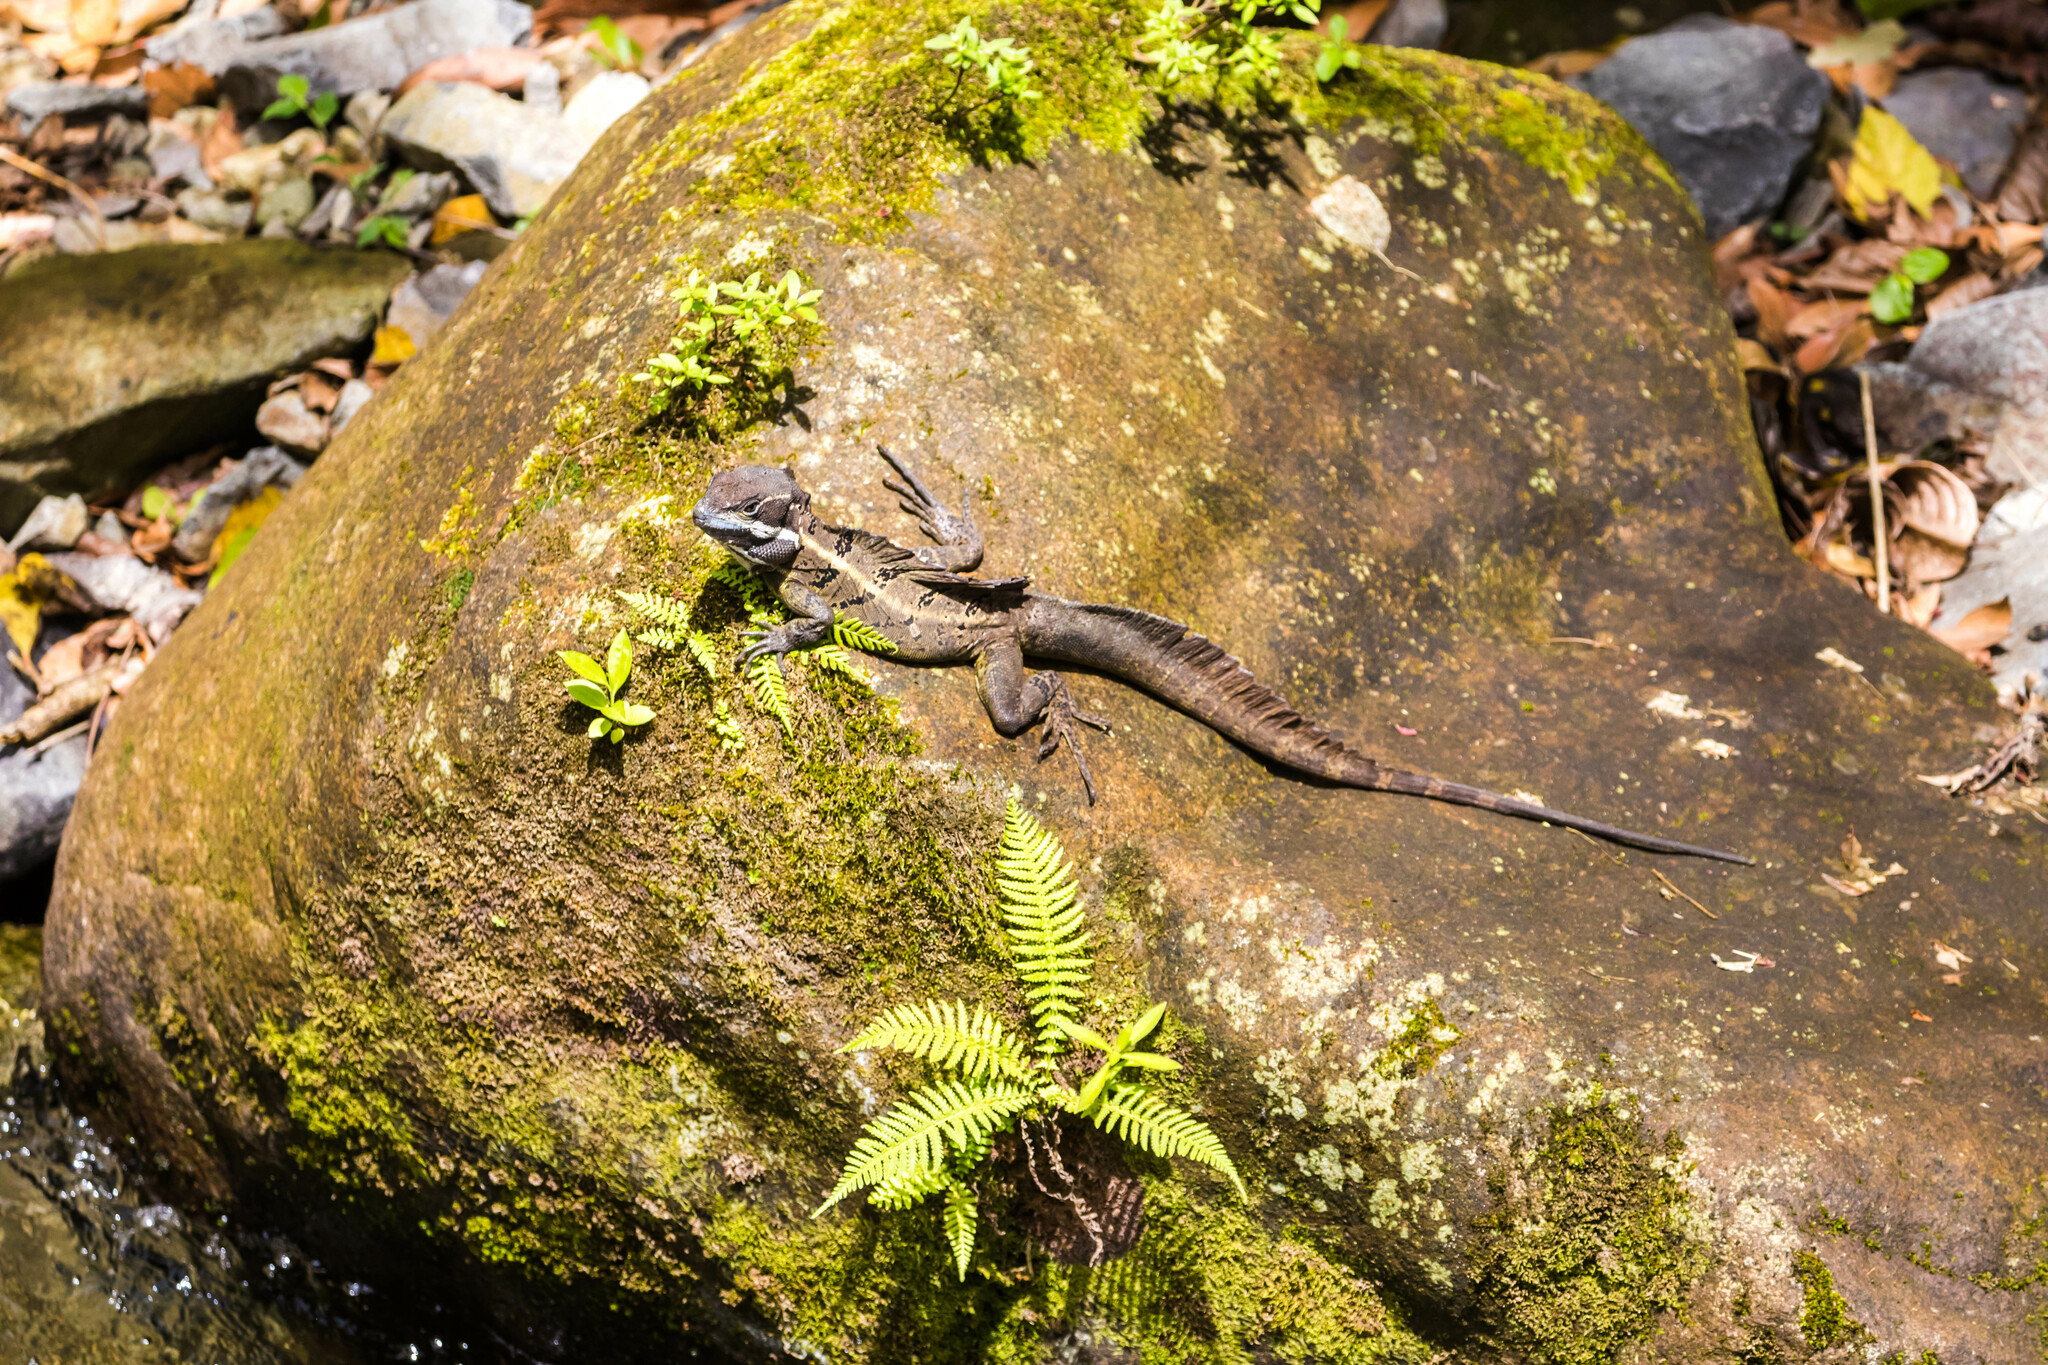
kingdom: Animalia
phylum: Chordata
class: Squamata
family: Corytophanidae
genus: Basiliscus
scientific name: Basiliscus basiliscus
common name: Common basilisk
